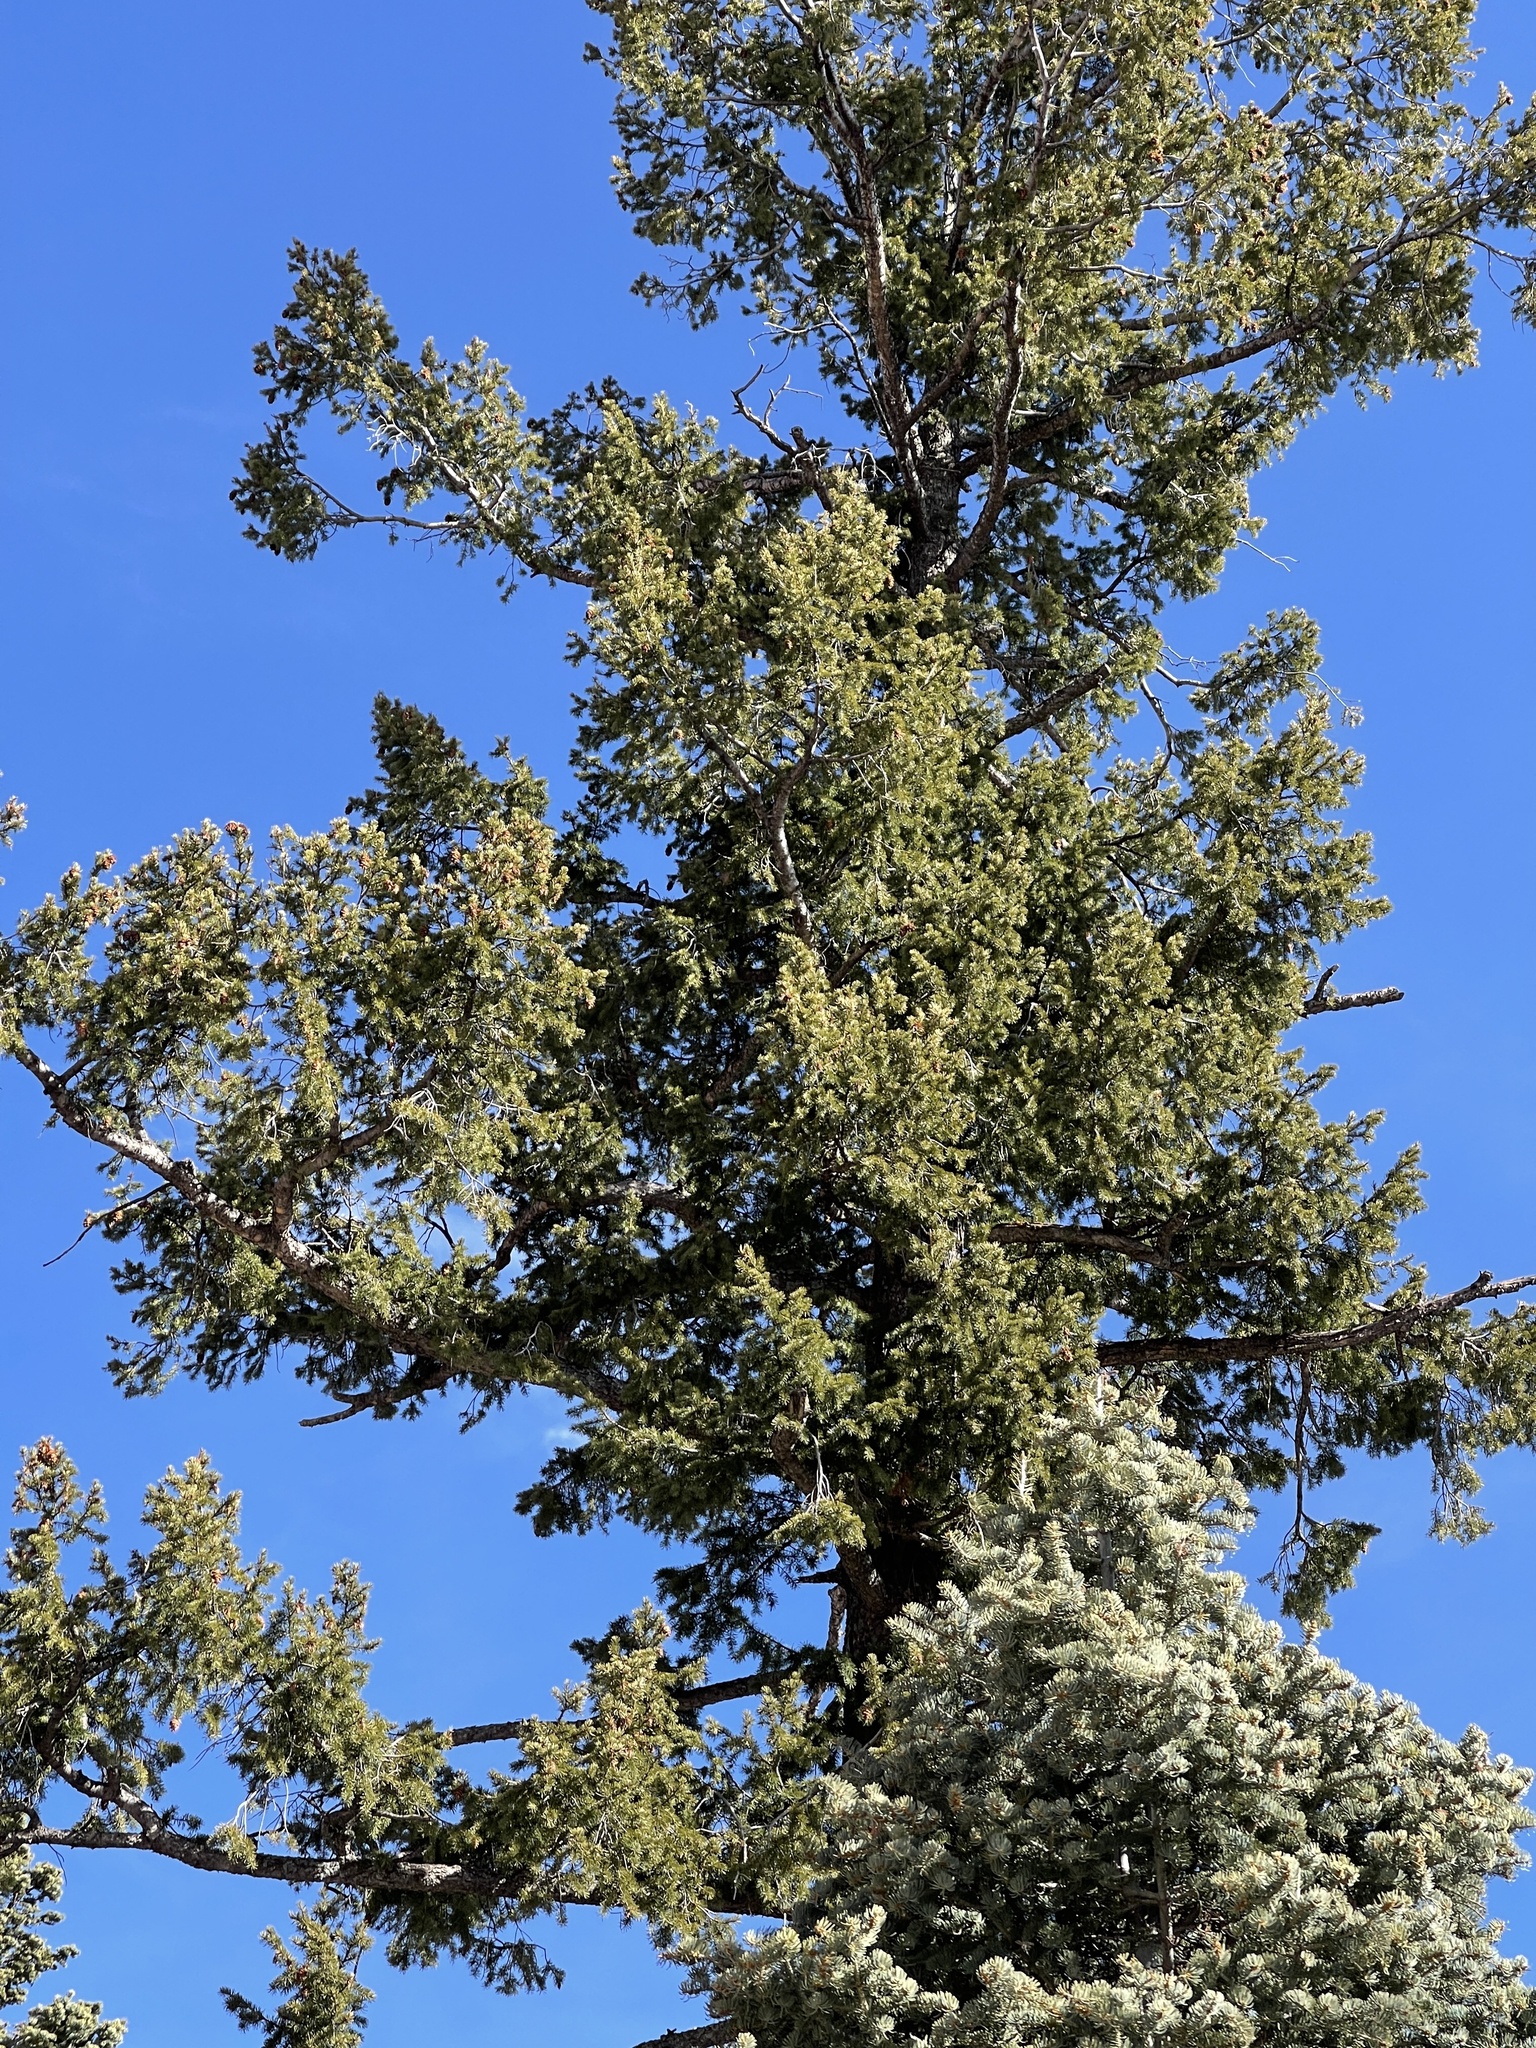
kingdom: Plantae
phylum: Tracheophyta
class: Pinopsida
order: Pinales
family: Pinaceae
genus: Pseudotsuga
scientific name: Pseudotsuga menziesii
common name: Douglas fir
